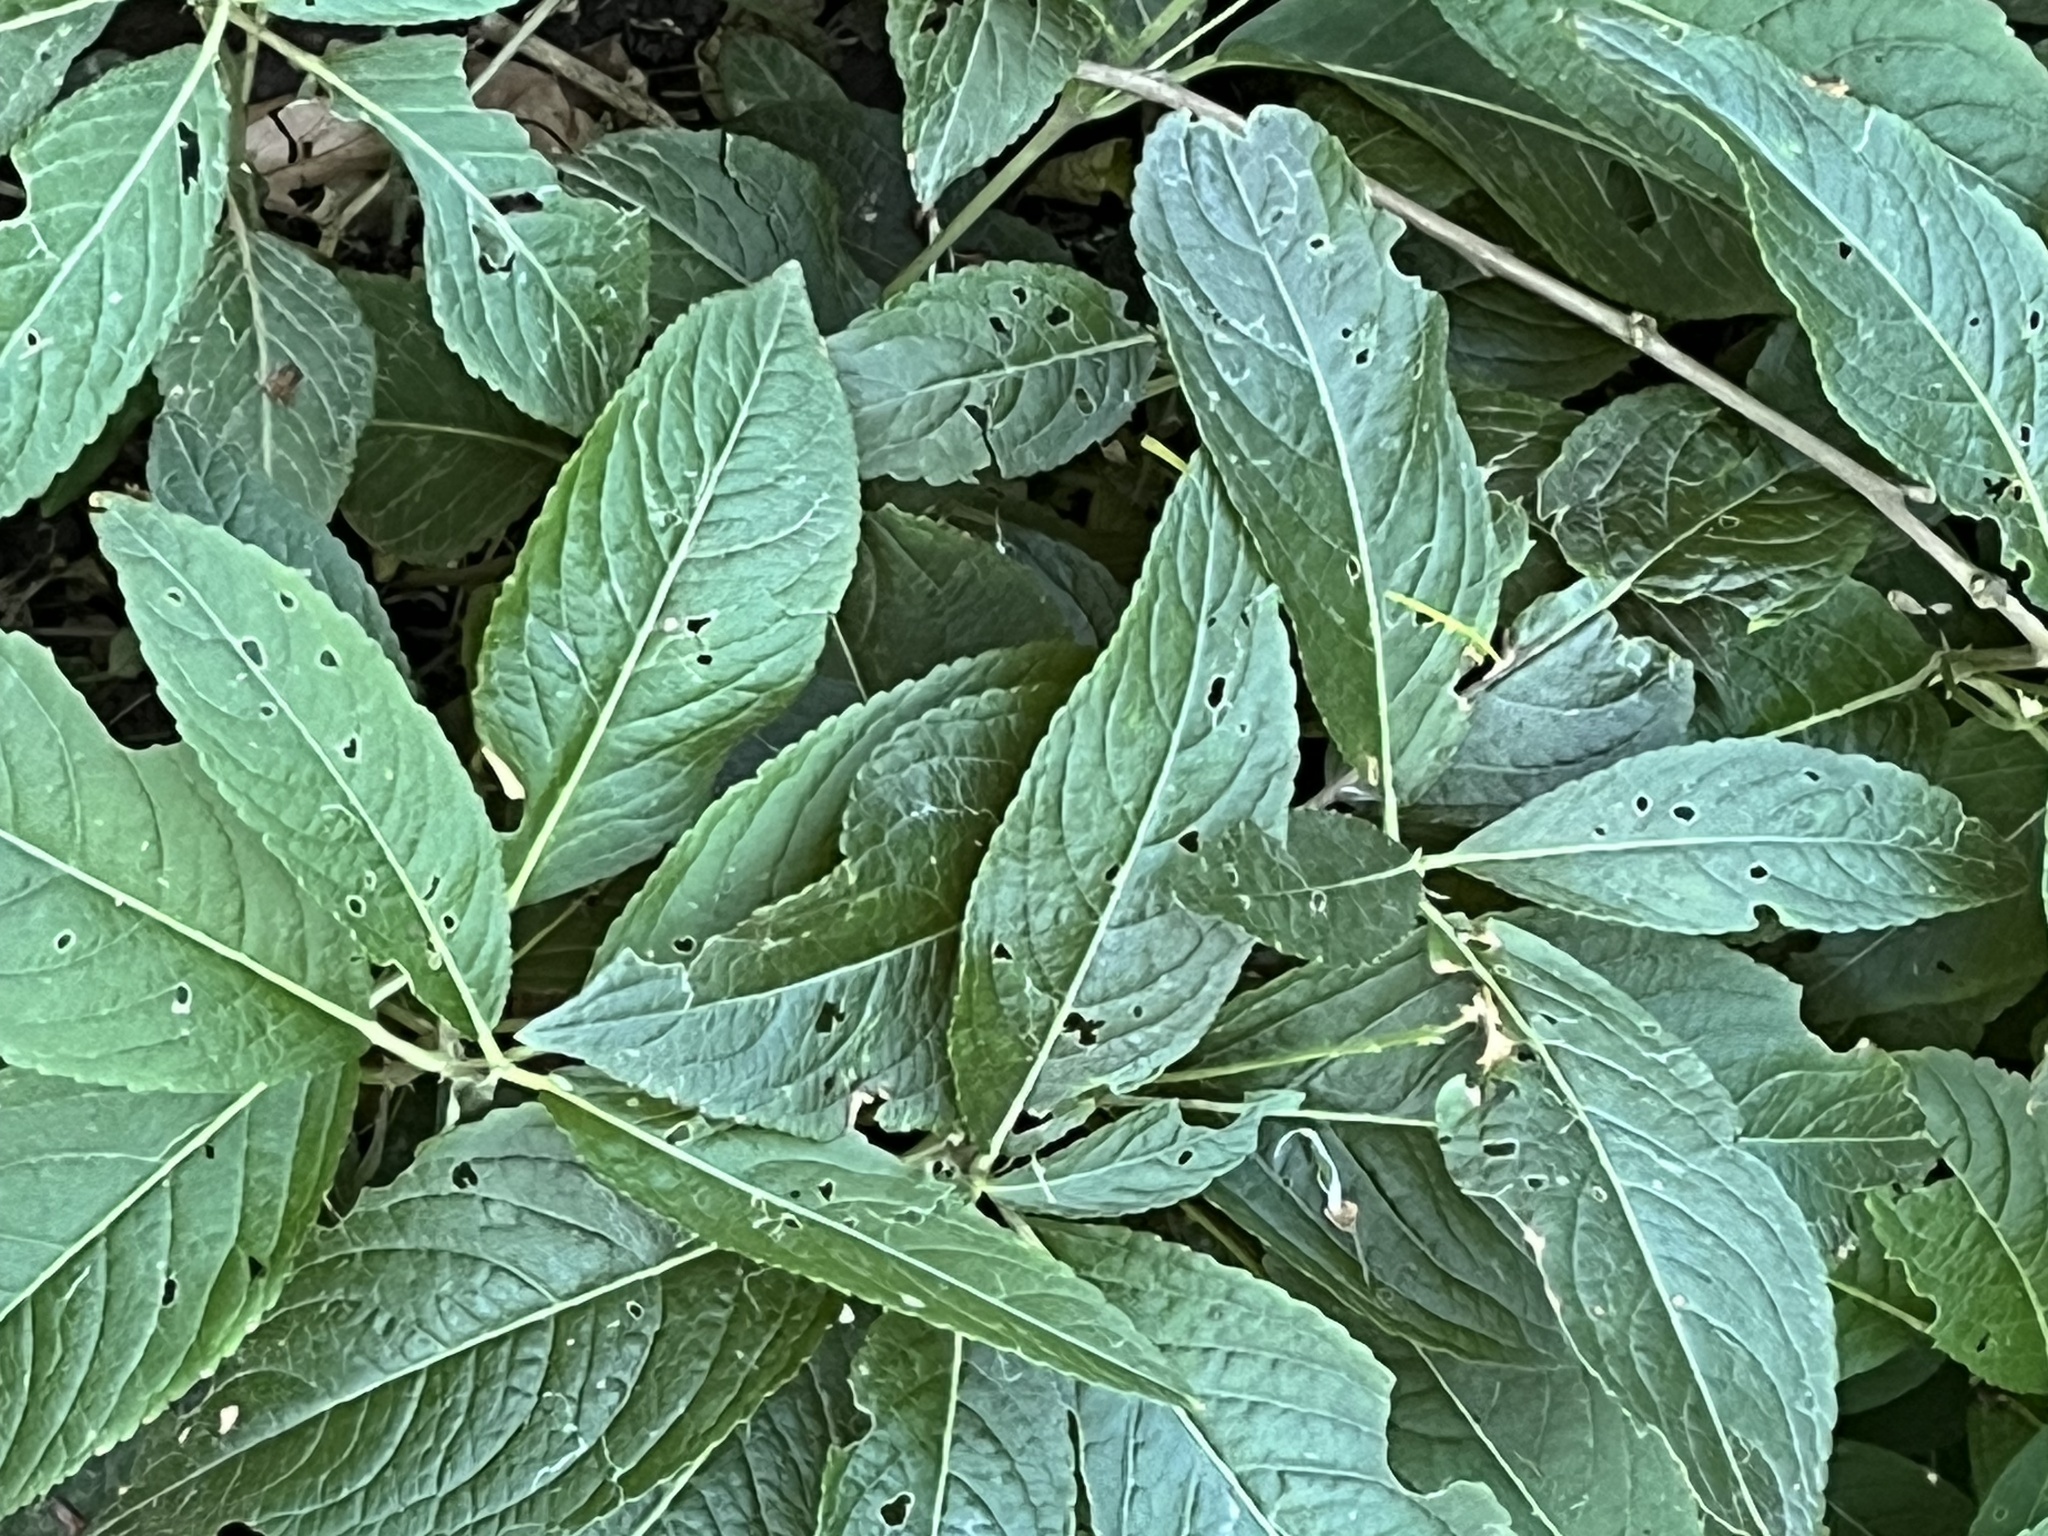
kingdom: Plantae
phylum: Tracheophyta
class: Magnoliopsida
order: Malpighiales
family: Euphorbiaceae
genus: Mercurialis
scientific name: Mercurialis perennis
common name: Dog mercury
